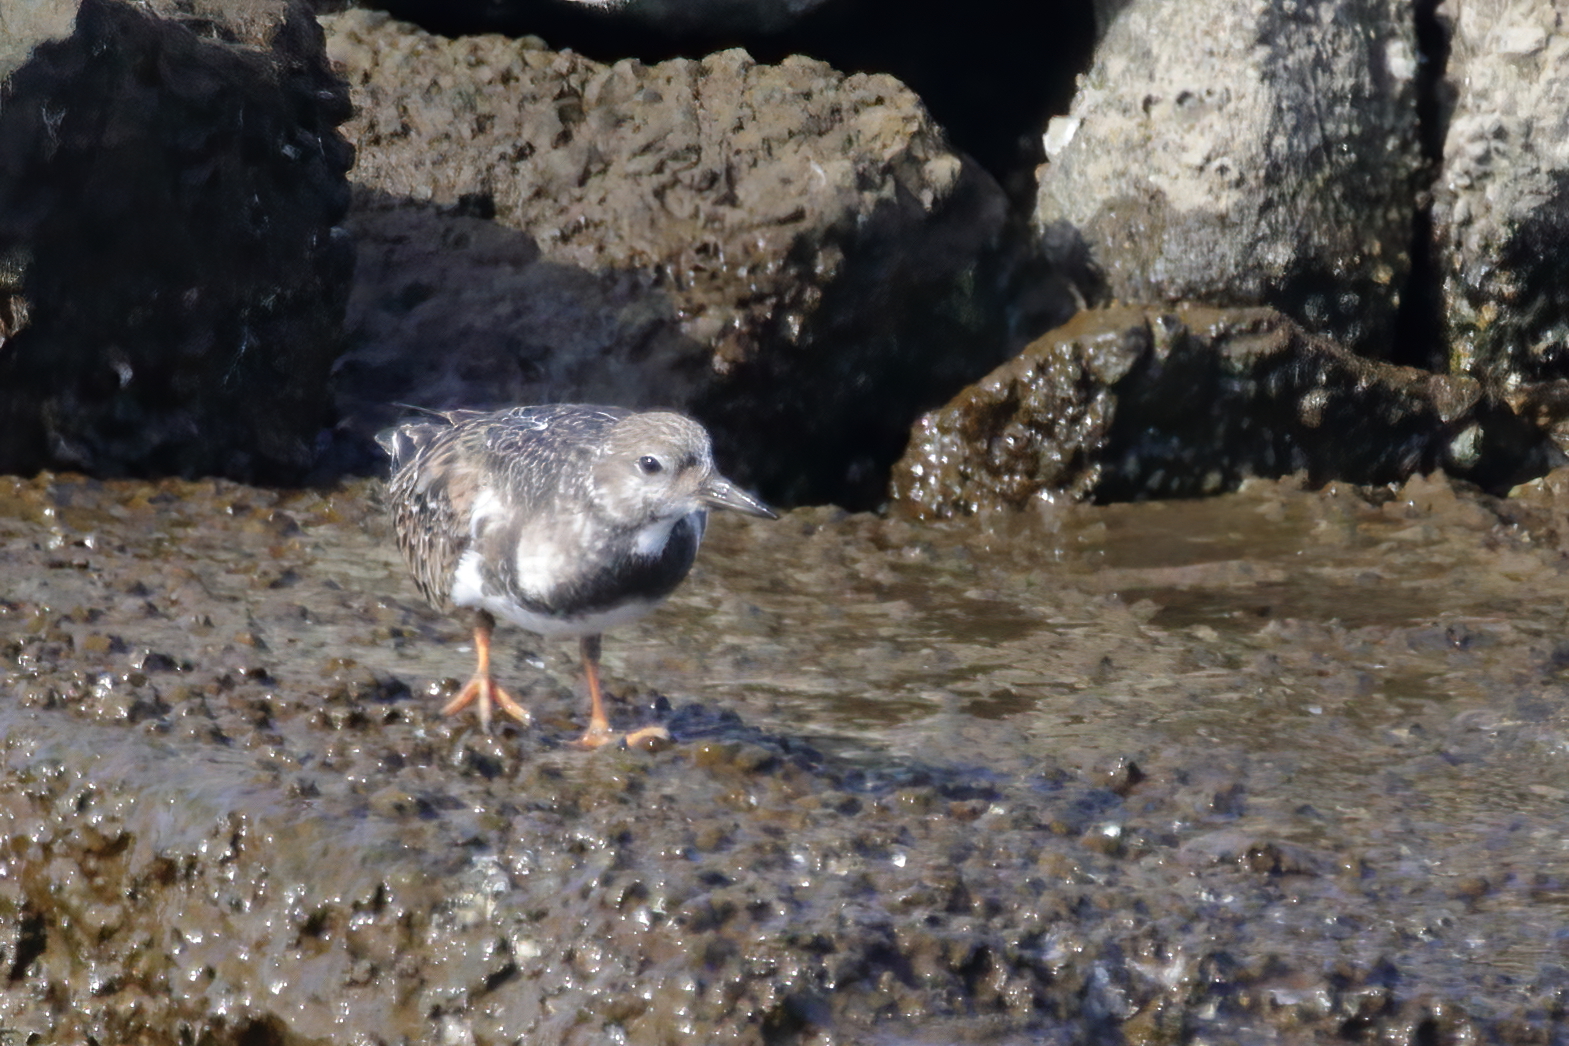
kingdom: Animalia
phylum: Chordata
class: Aves
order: Charadriiformes
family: Scolopacidae
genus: Arenaria
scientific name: Arenaria interpres
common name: Ruddy turnstone
